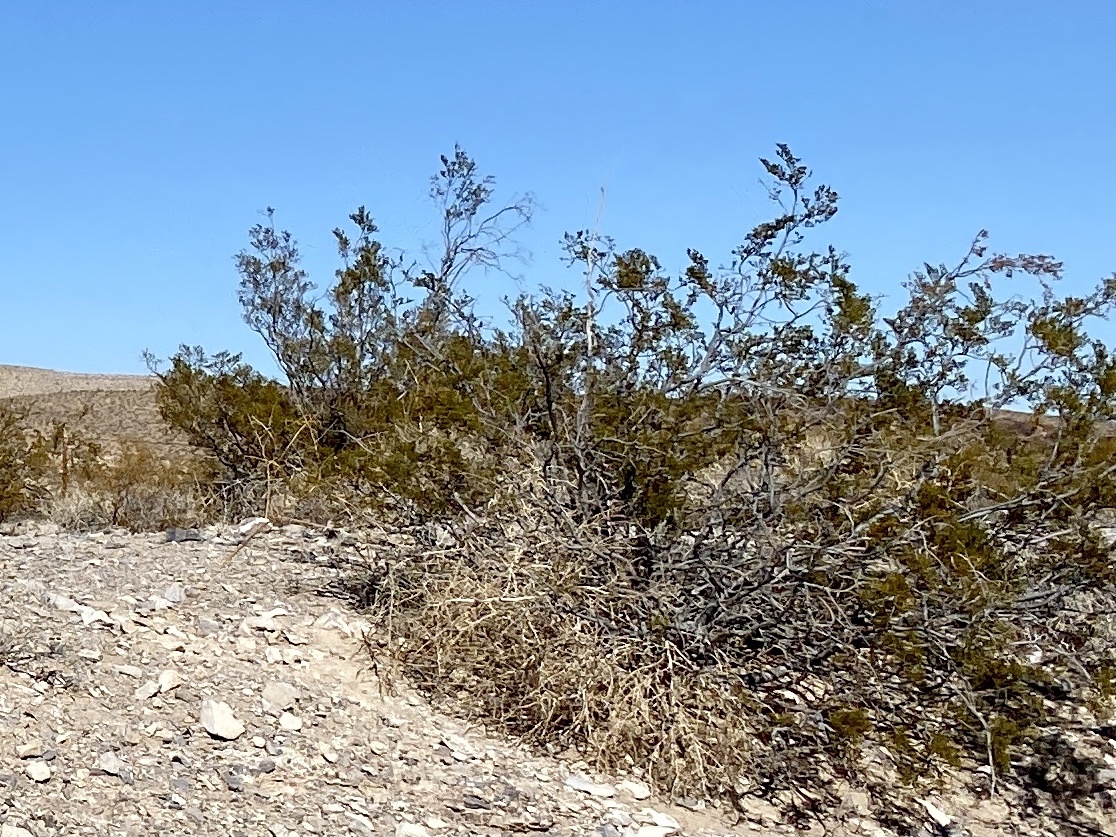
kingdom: Plantae
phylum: Tracheophyta
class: Magnoliopsida
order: Zygophyllales
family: Zygophyllaceae
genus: Larrea
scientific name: Larrea tridentata
